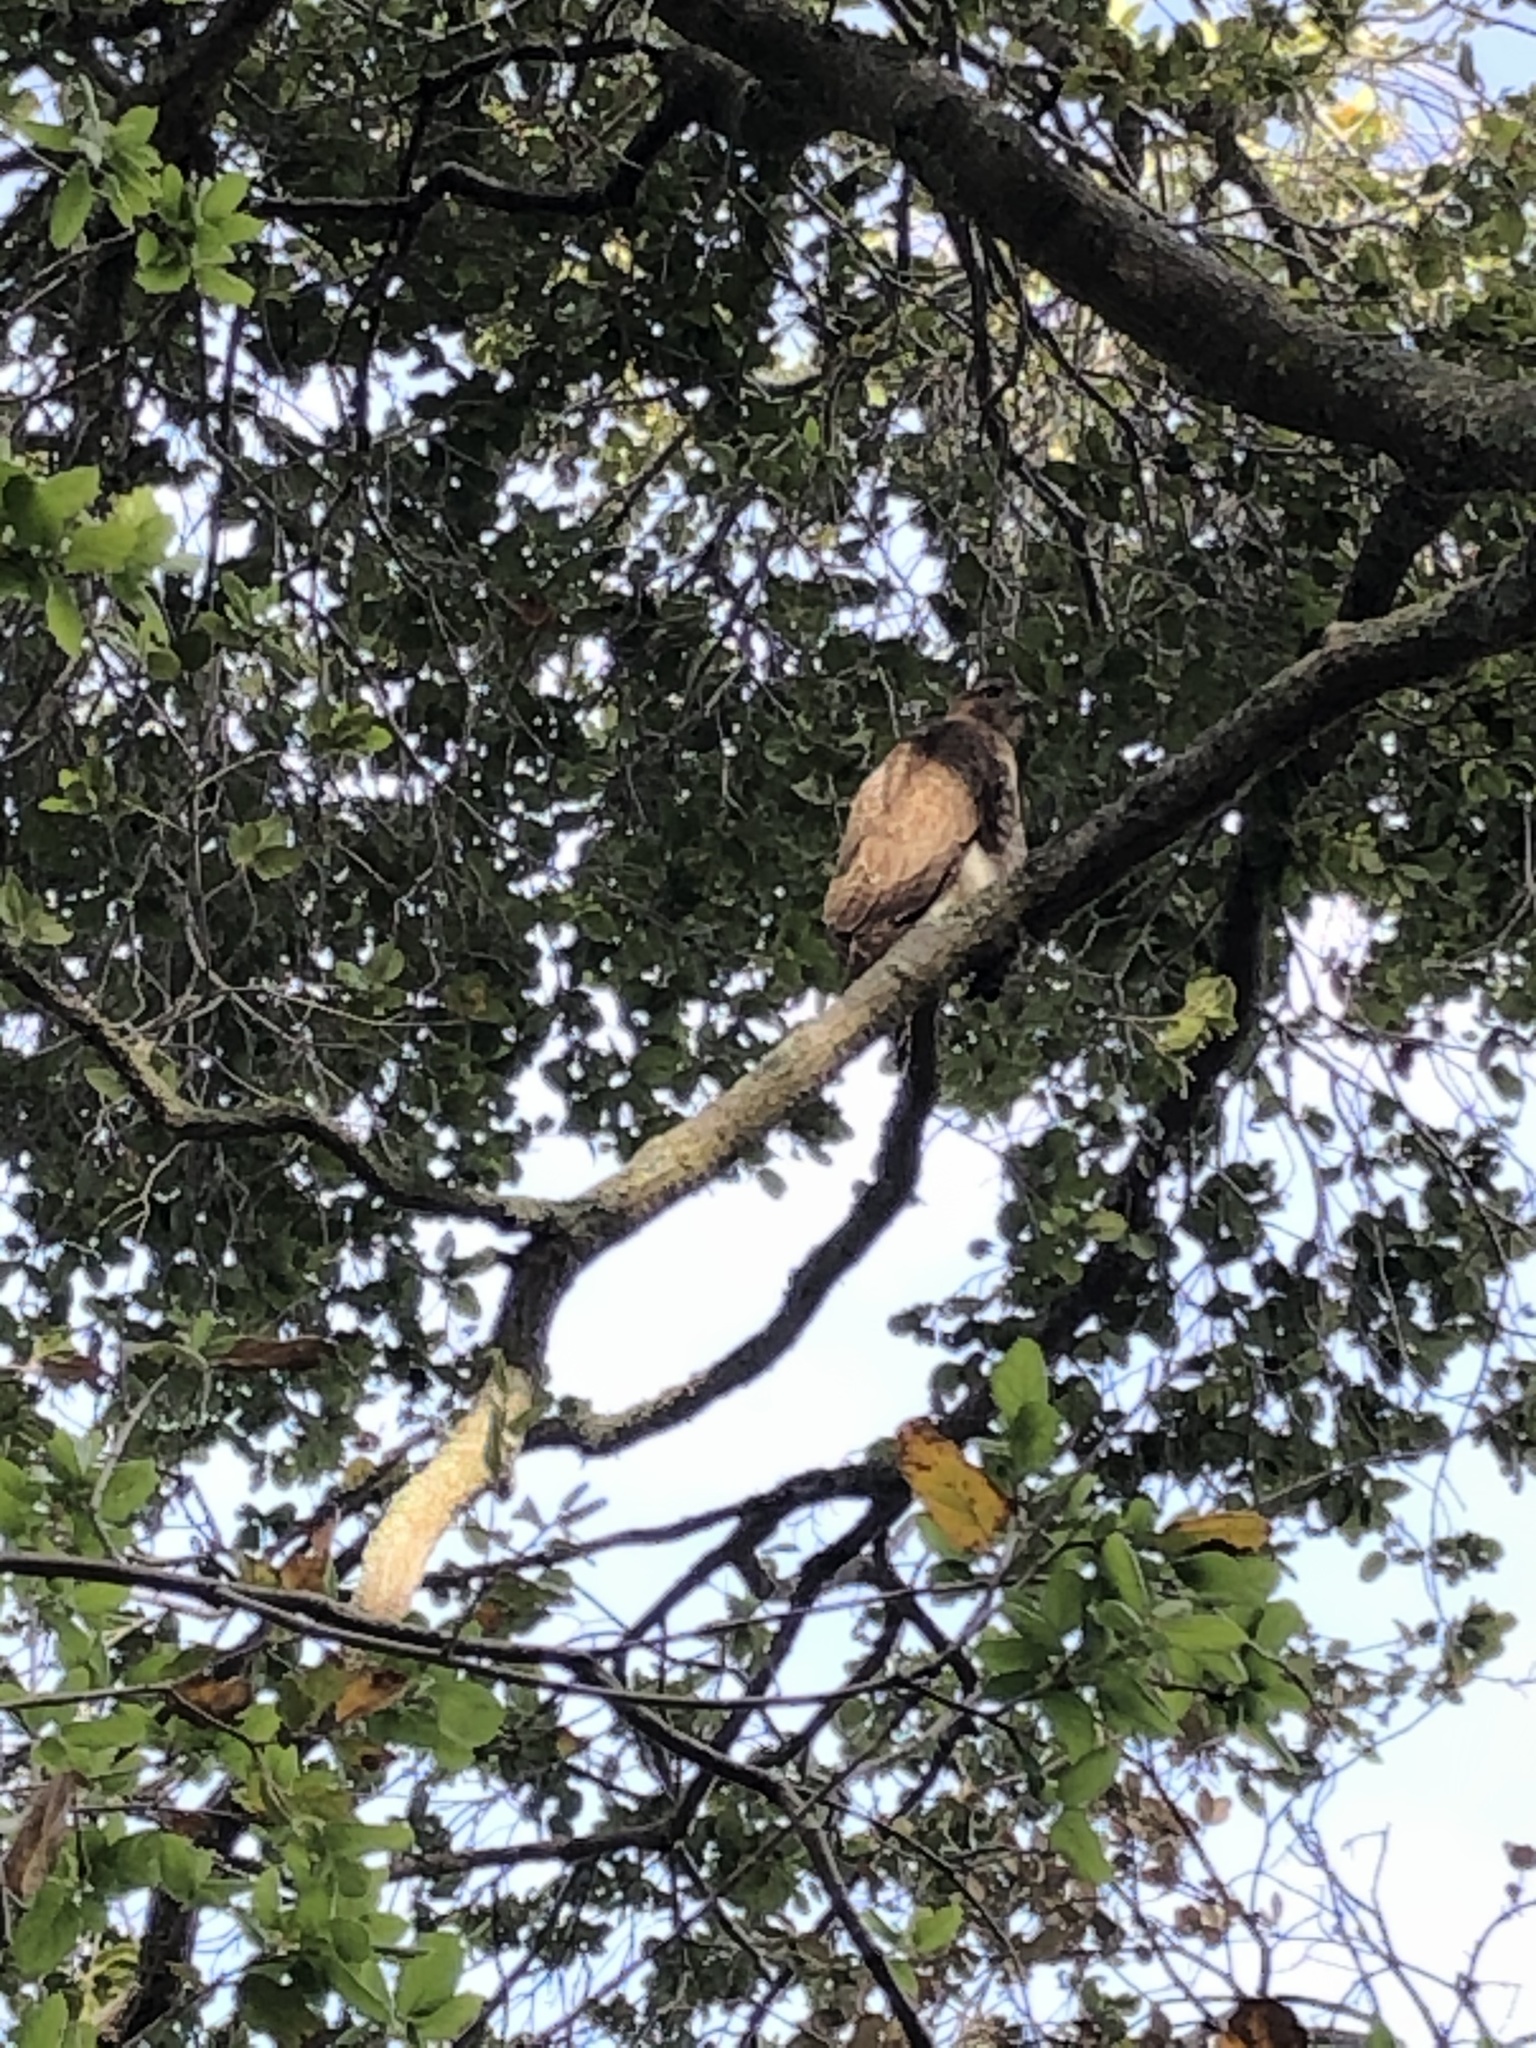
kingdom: Animalia
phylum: Chordata
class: Aves
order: Accipitriformes
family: Accipitridae
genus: Buteo
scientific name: Buteo jamaicensis
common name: Red-tailed hawk
